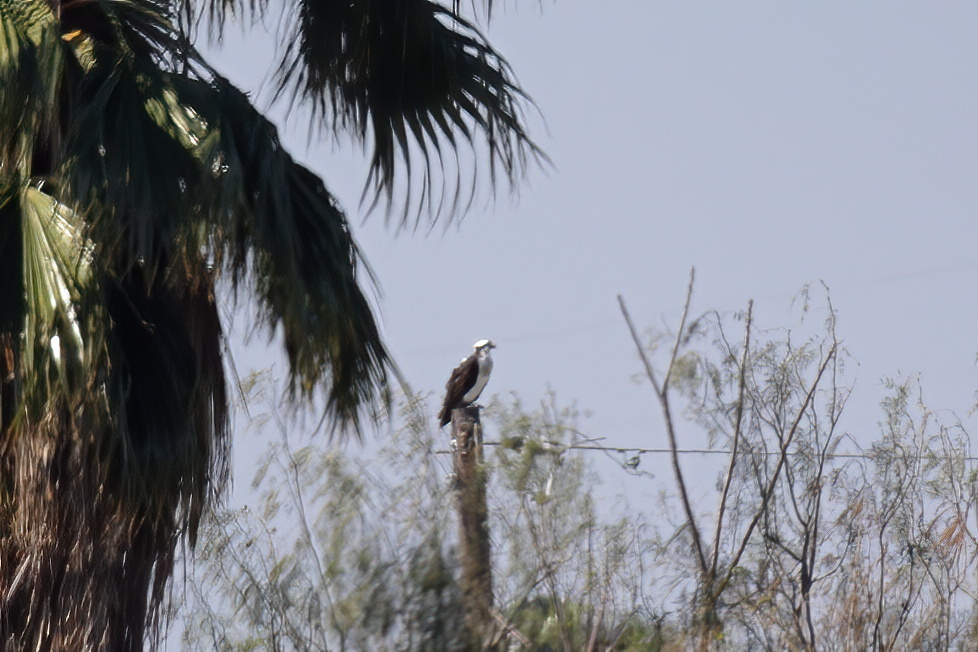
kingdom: Animalia
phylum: Chordata
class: Aves
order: Accipitriformes
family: Pandionidae
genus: Pandion
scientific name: Pandion haliaetus
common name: Osprey
